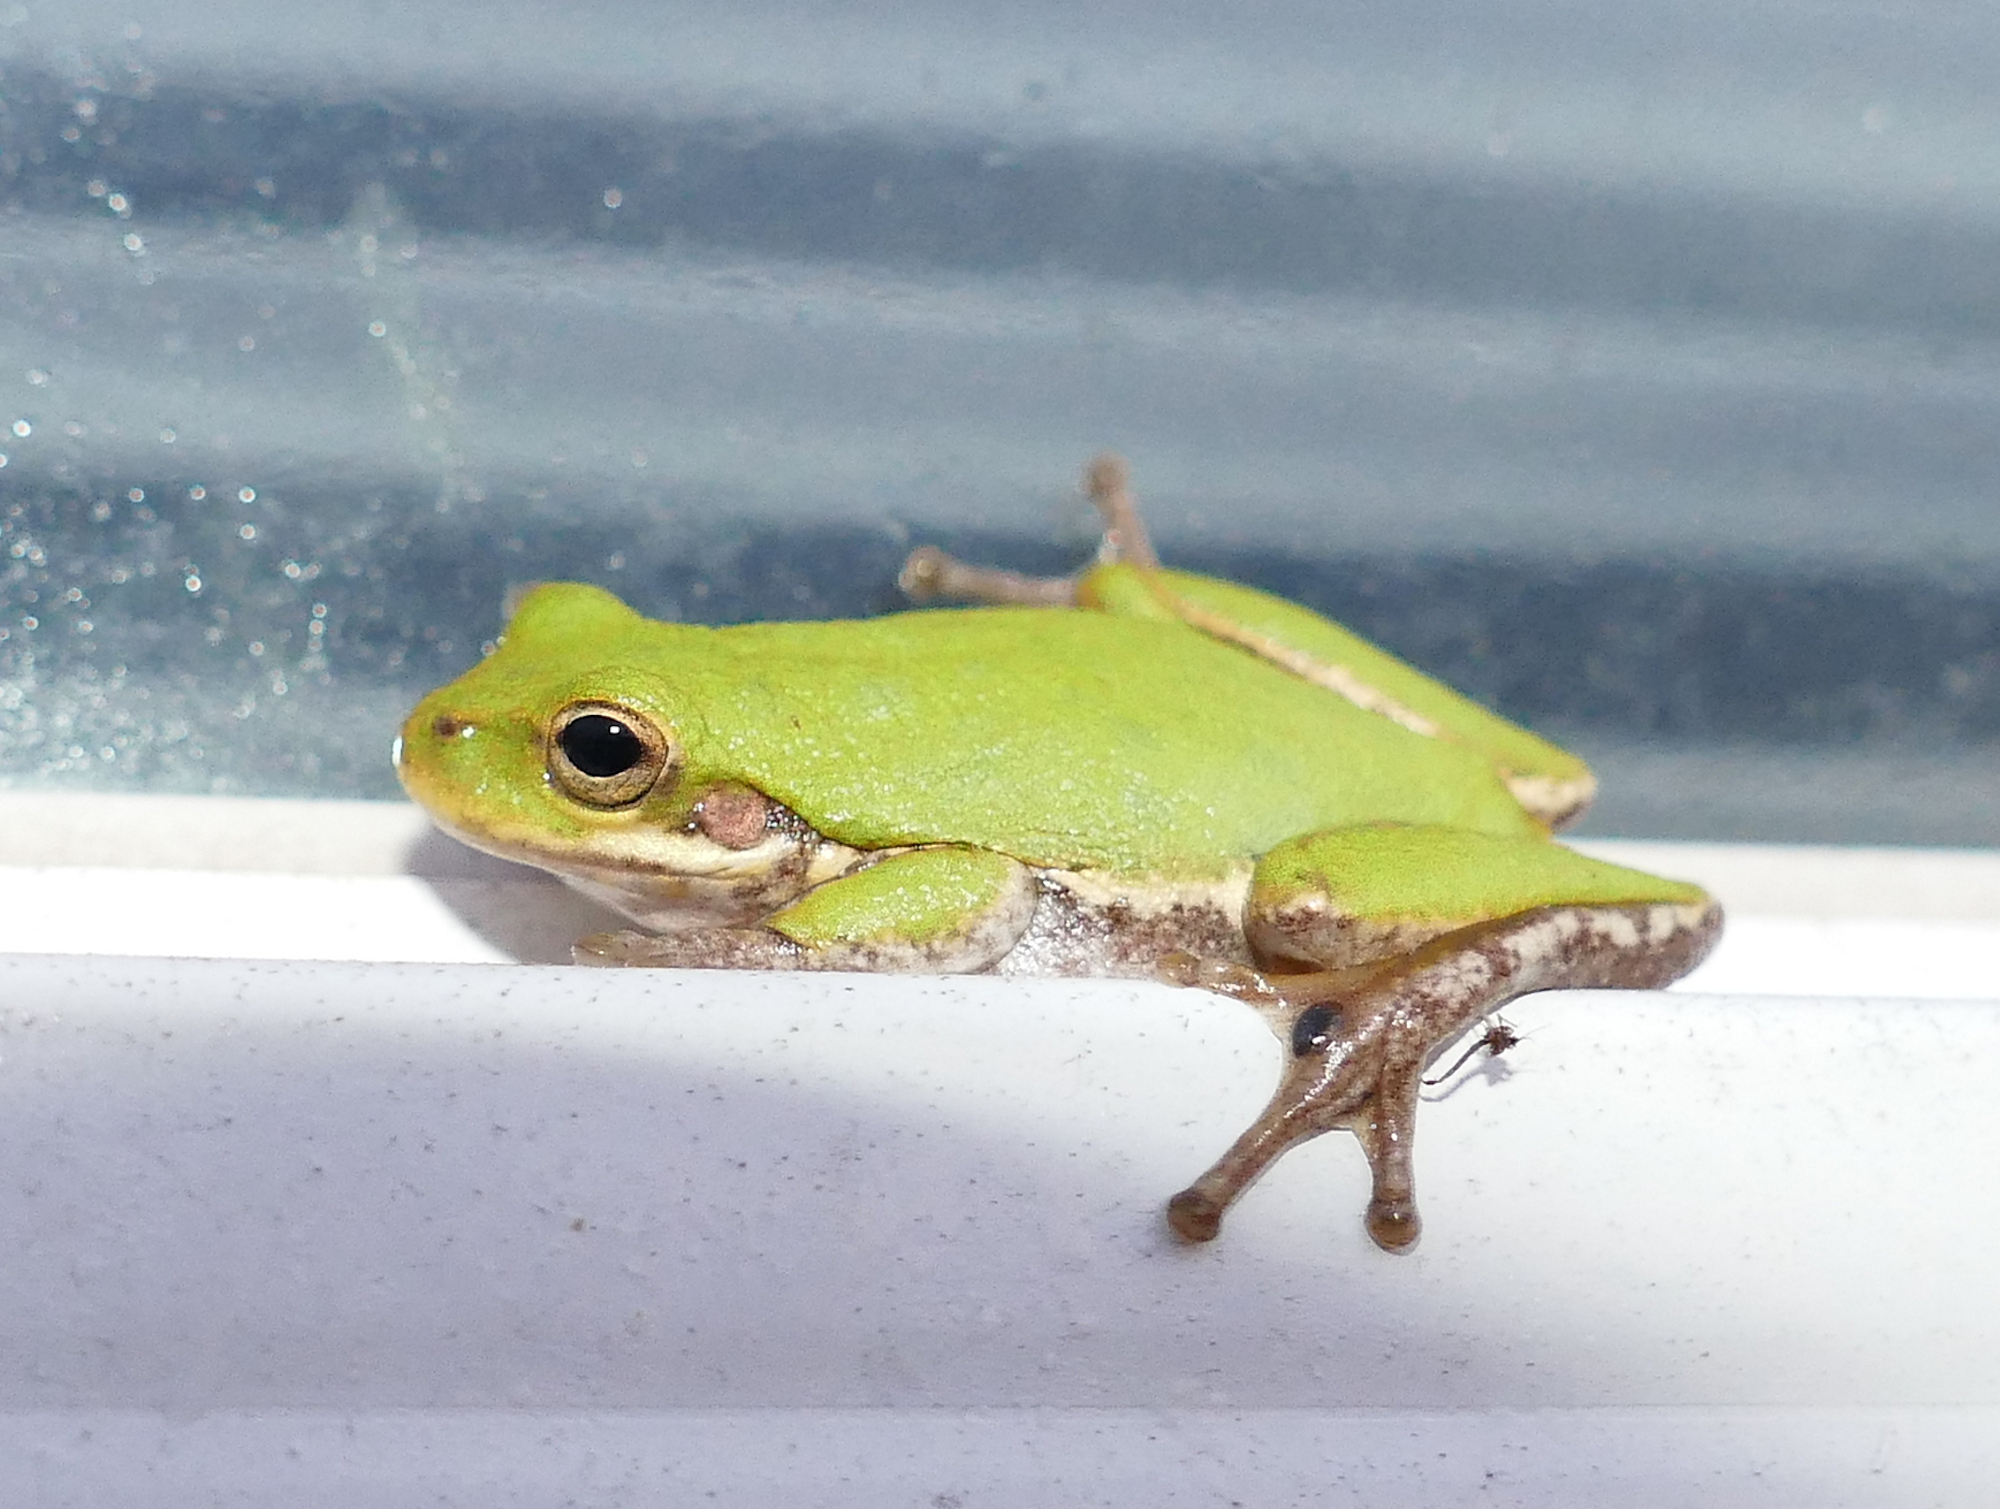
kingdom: Animalia
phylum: Chordata
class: Amphibia
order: Anura
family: Hylidae
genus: Dryophytes
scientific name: Dryophytes squirellus
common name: Squirrel treefrog
